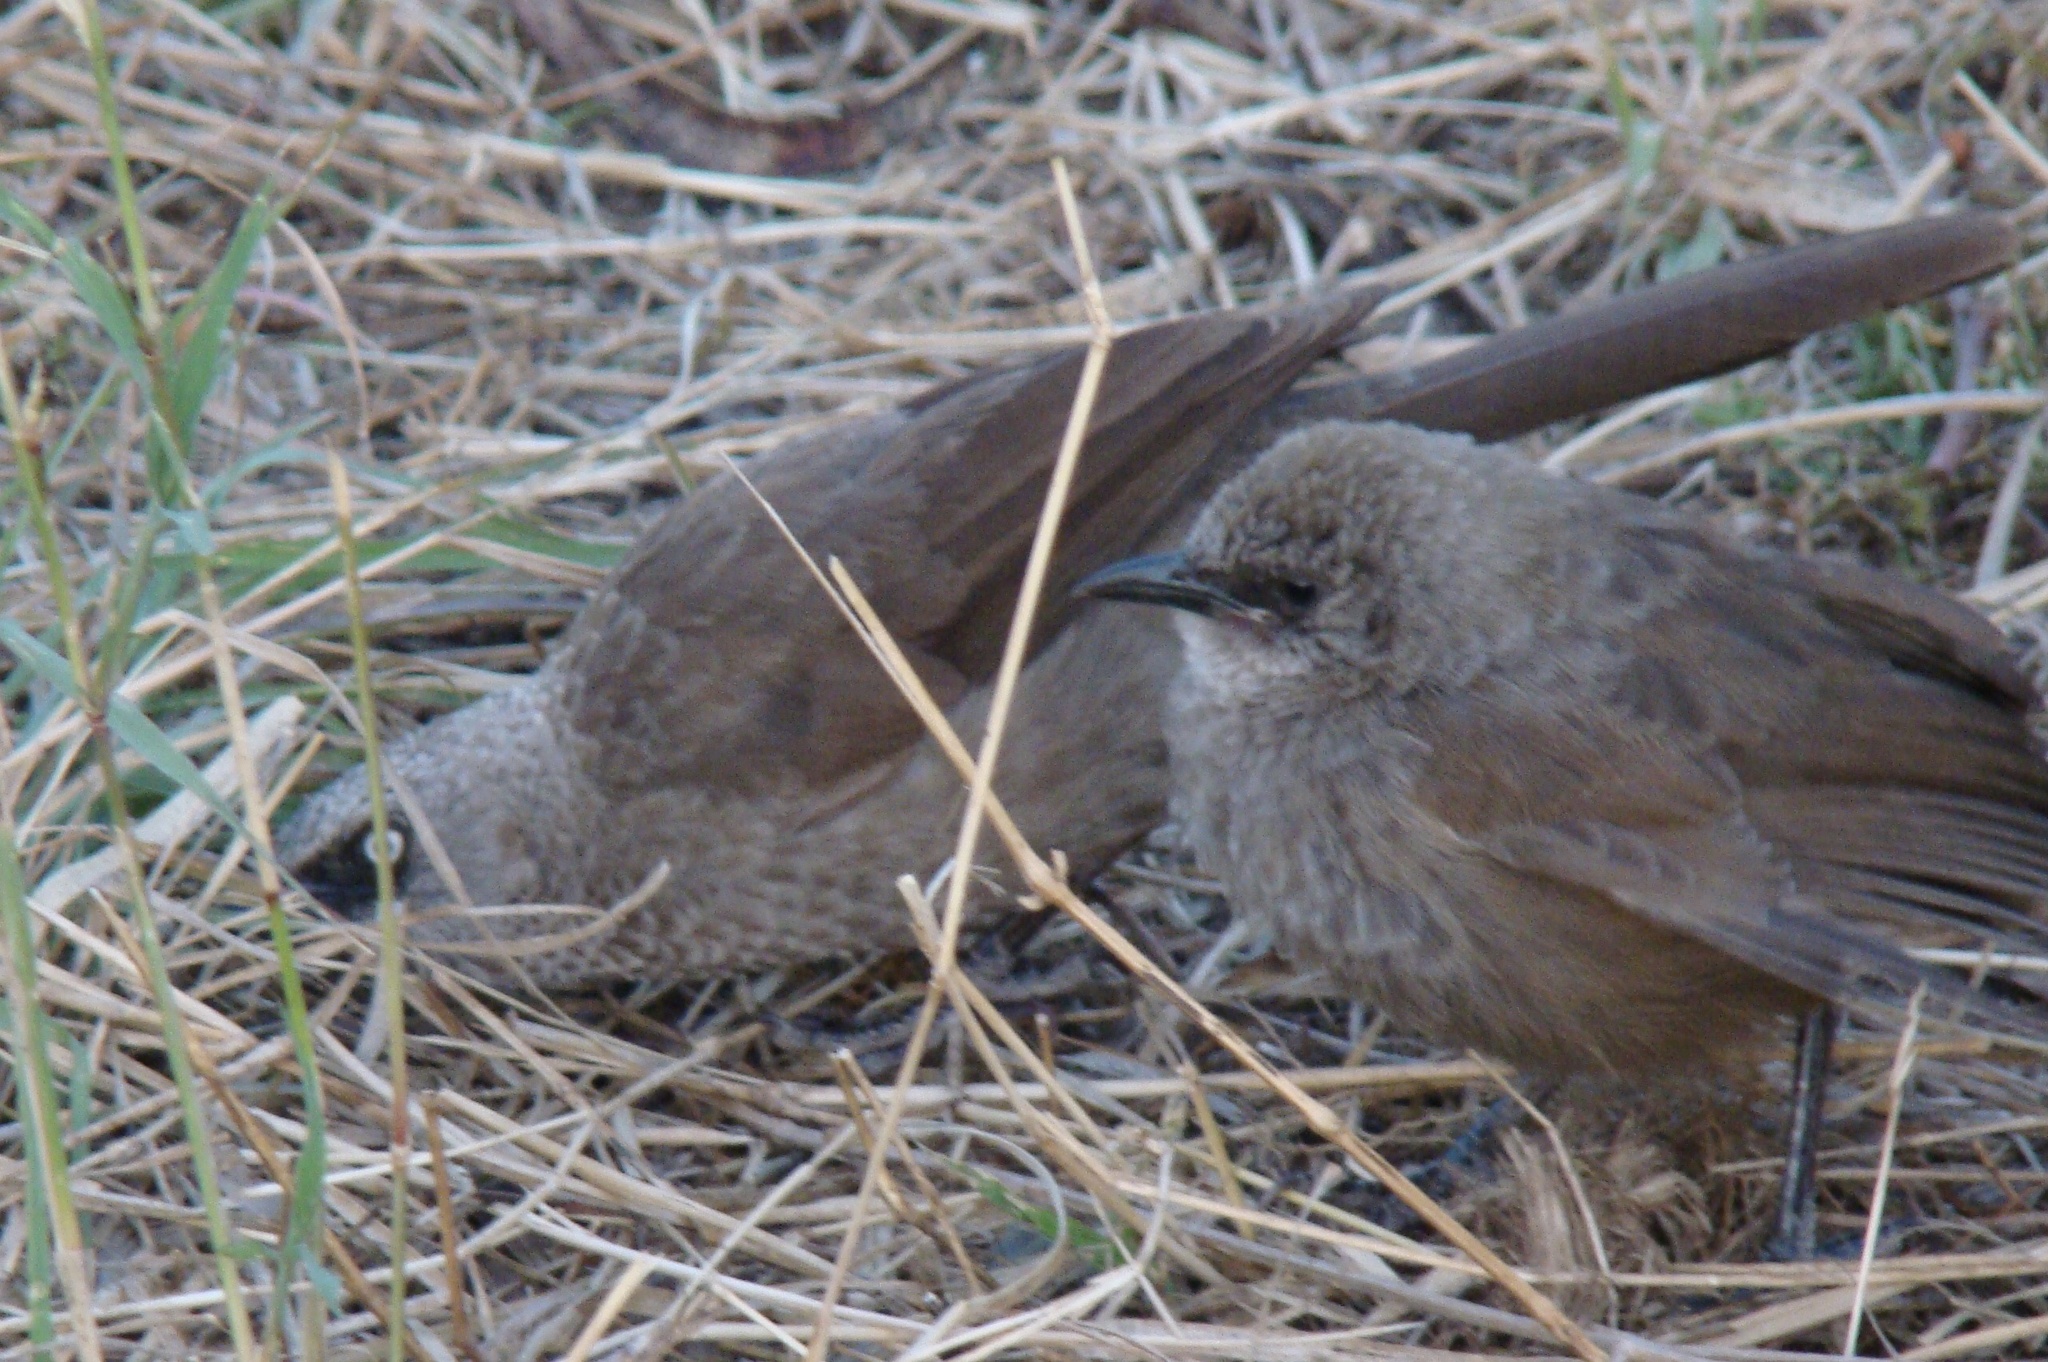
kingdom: Animalia
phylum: Chordata
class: Aves
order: Passeriformes
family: Leiothrichidae
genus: Turdoides
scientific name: Turdoides sharpei
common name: Black-lored babbler
